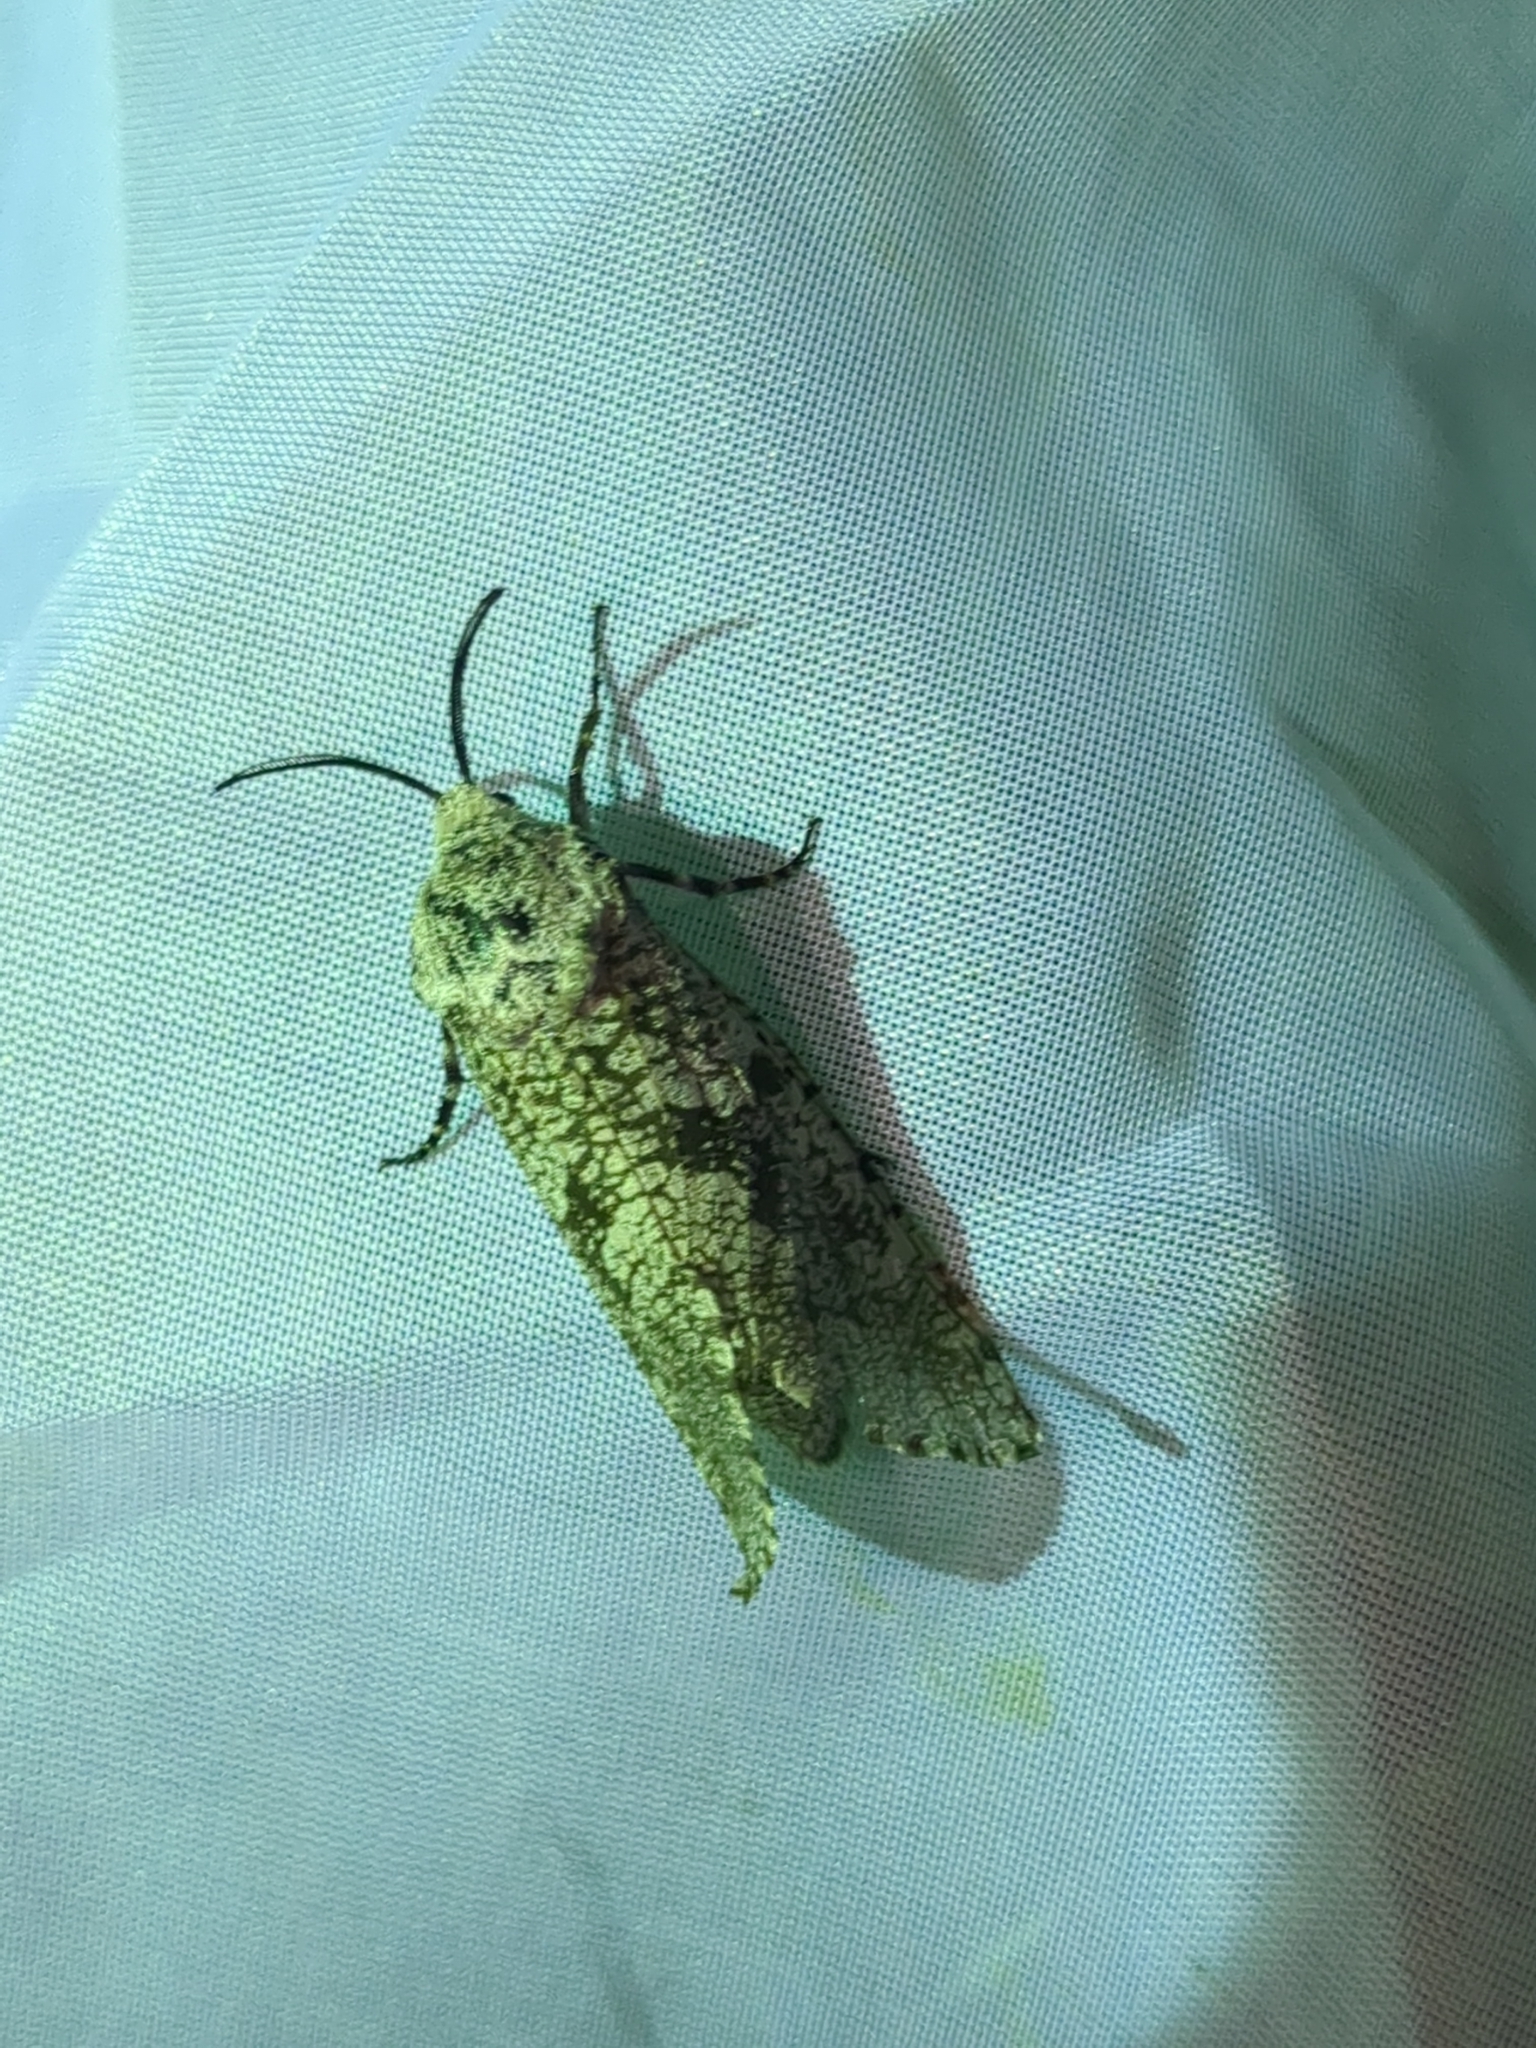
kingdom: Animalia
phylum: Arthropoda
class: Insecta
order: Lepidoptera
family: Cossidae
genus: Prionoxystus
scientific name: Prionoxystus robiniae
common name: Carpenterworm
